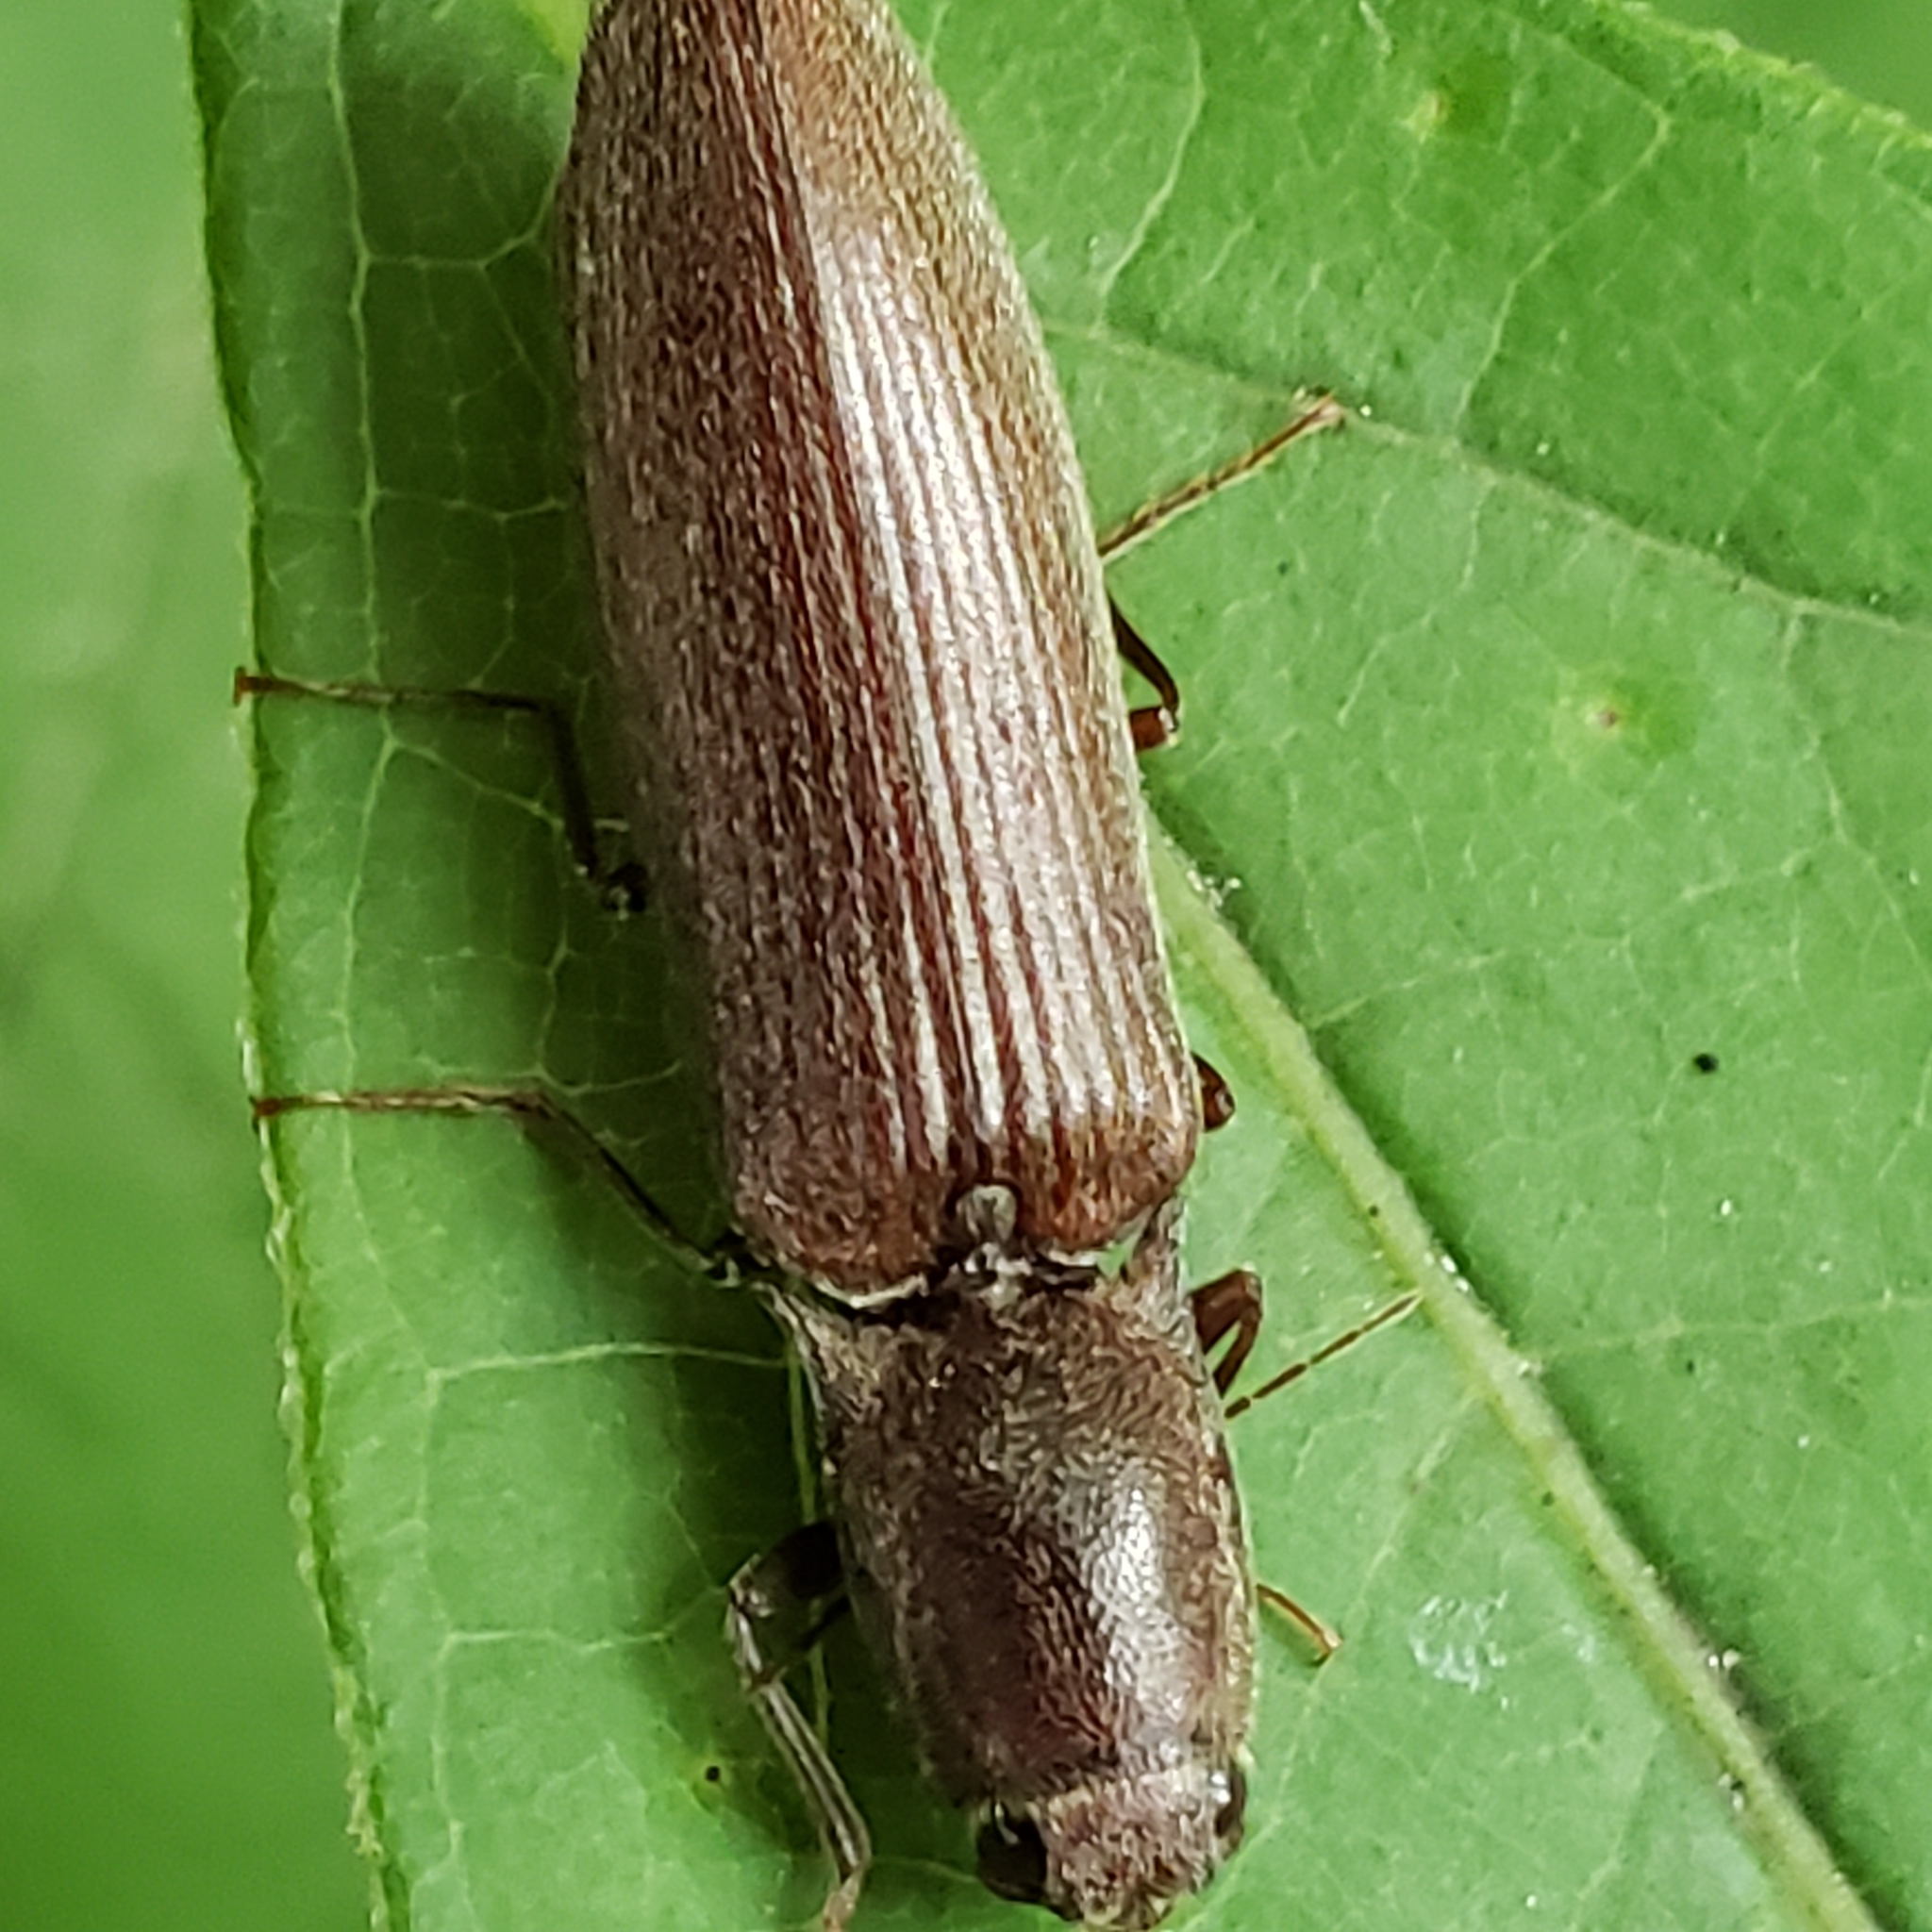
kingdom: Animalia
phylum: Arthropoda
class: Insecta
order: Coleoptera
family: Elateridae
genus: Proludius
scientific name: Proludius pyrros
